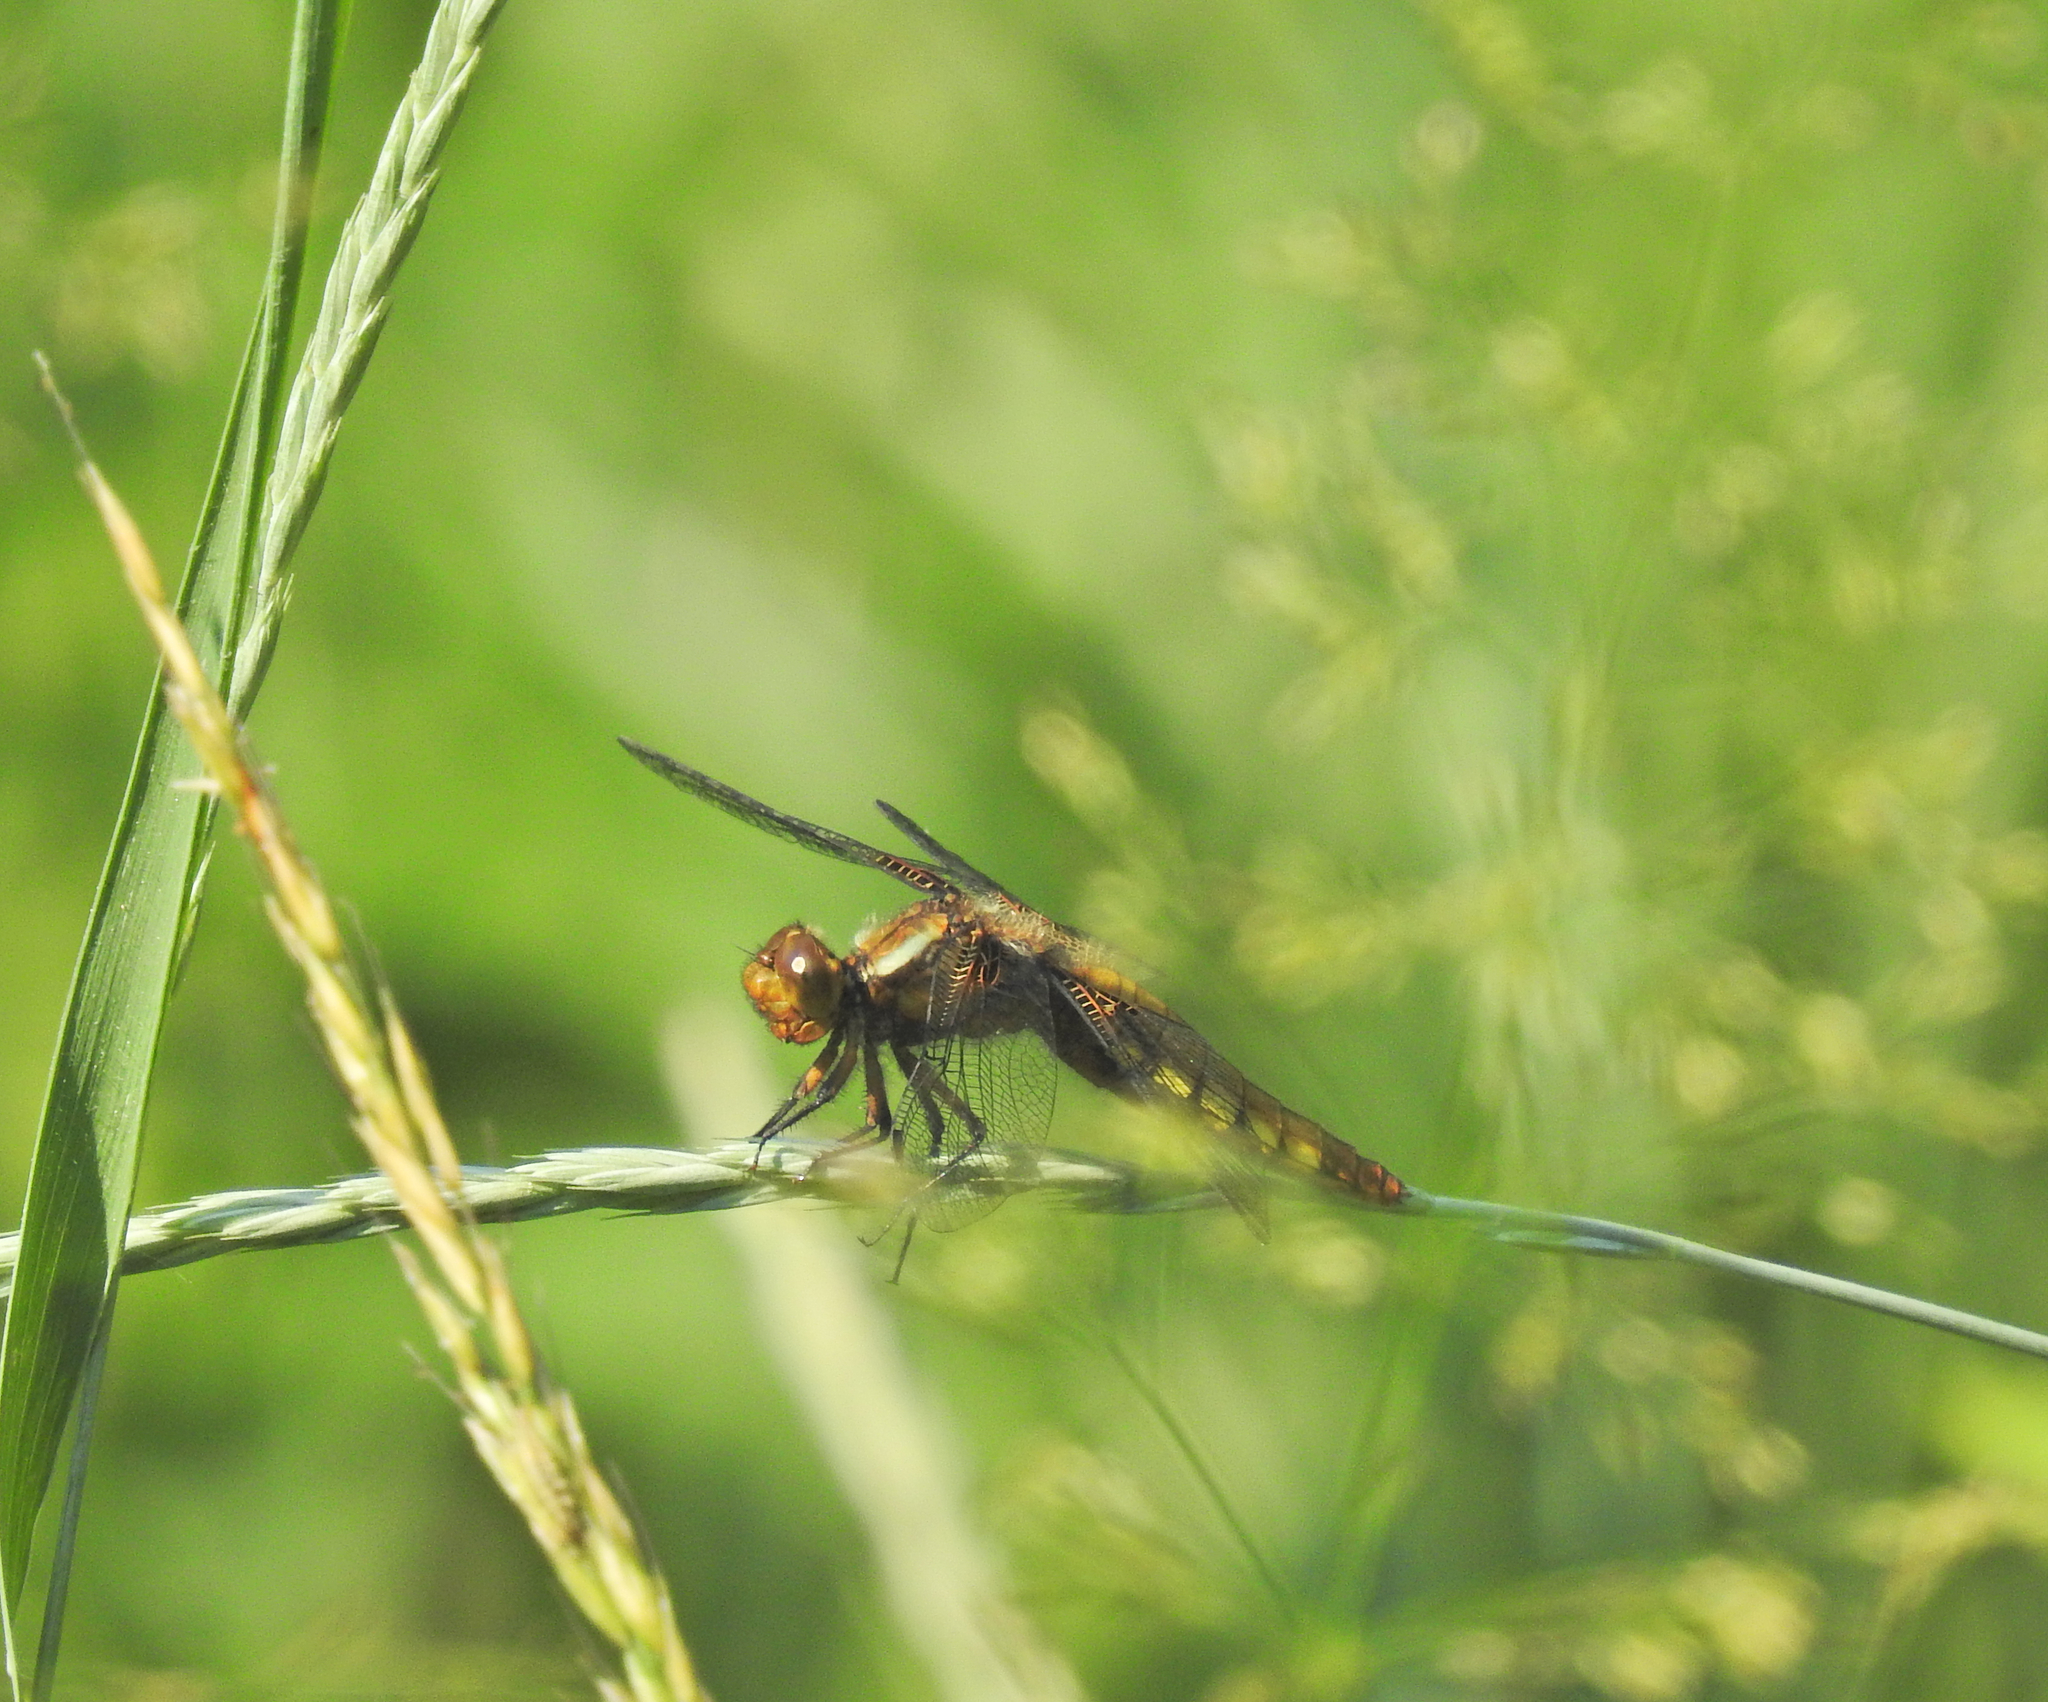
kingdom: Animalia
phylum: Arthropoda
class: Insecta
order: Odonata
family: Libellulidae
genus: Libellula
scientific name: Libellula depressa
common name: Broad-bodied chaser
